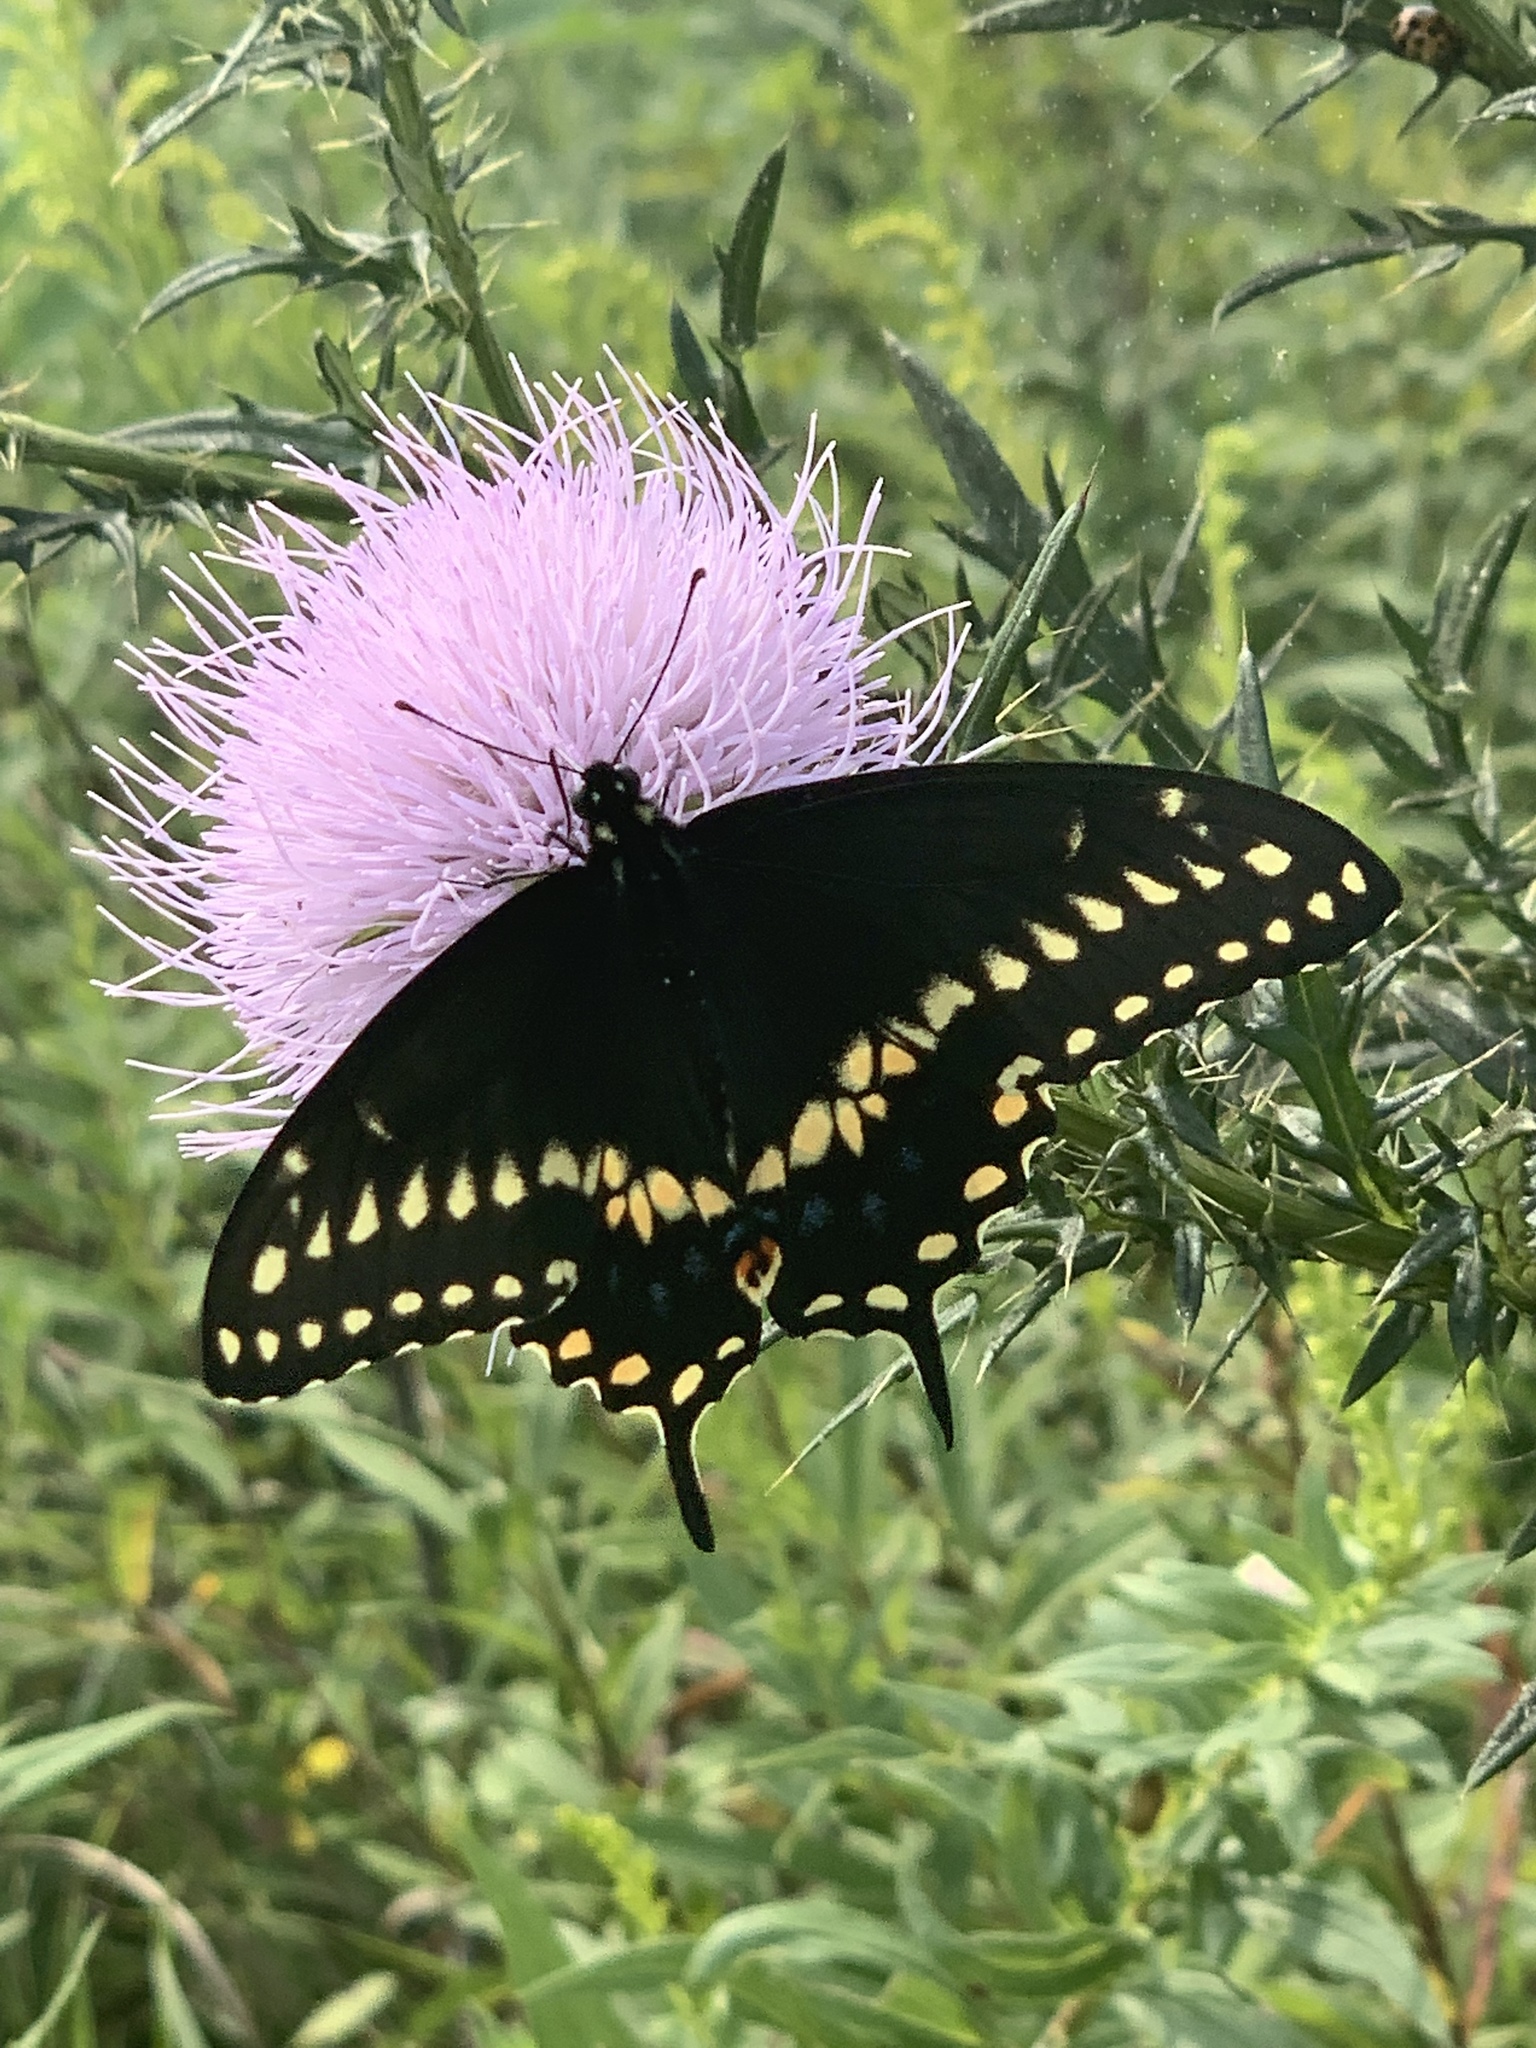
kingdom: Animalia
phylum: Arthropoda
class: Insecta
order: Lepidoptera
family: Papilionidae
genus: Papilio
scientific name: Papilio polyxenes
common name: Black swallowtail
